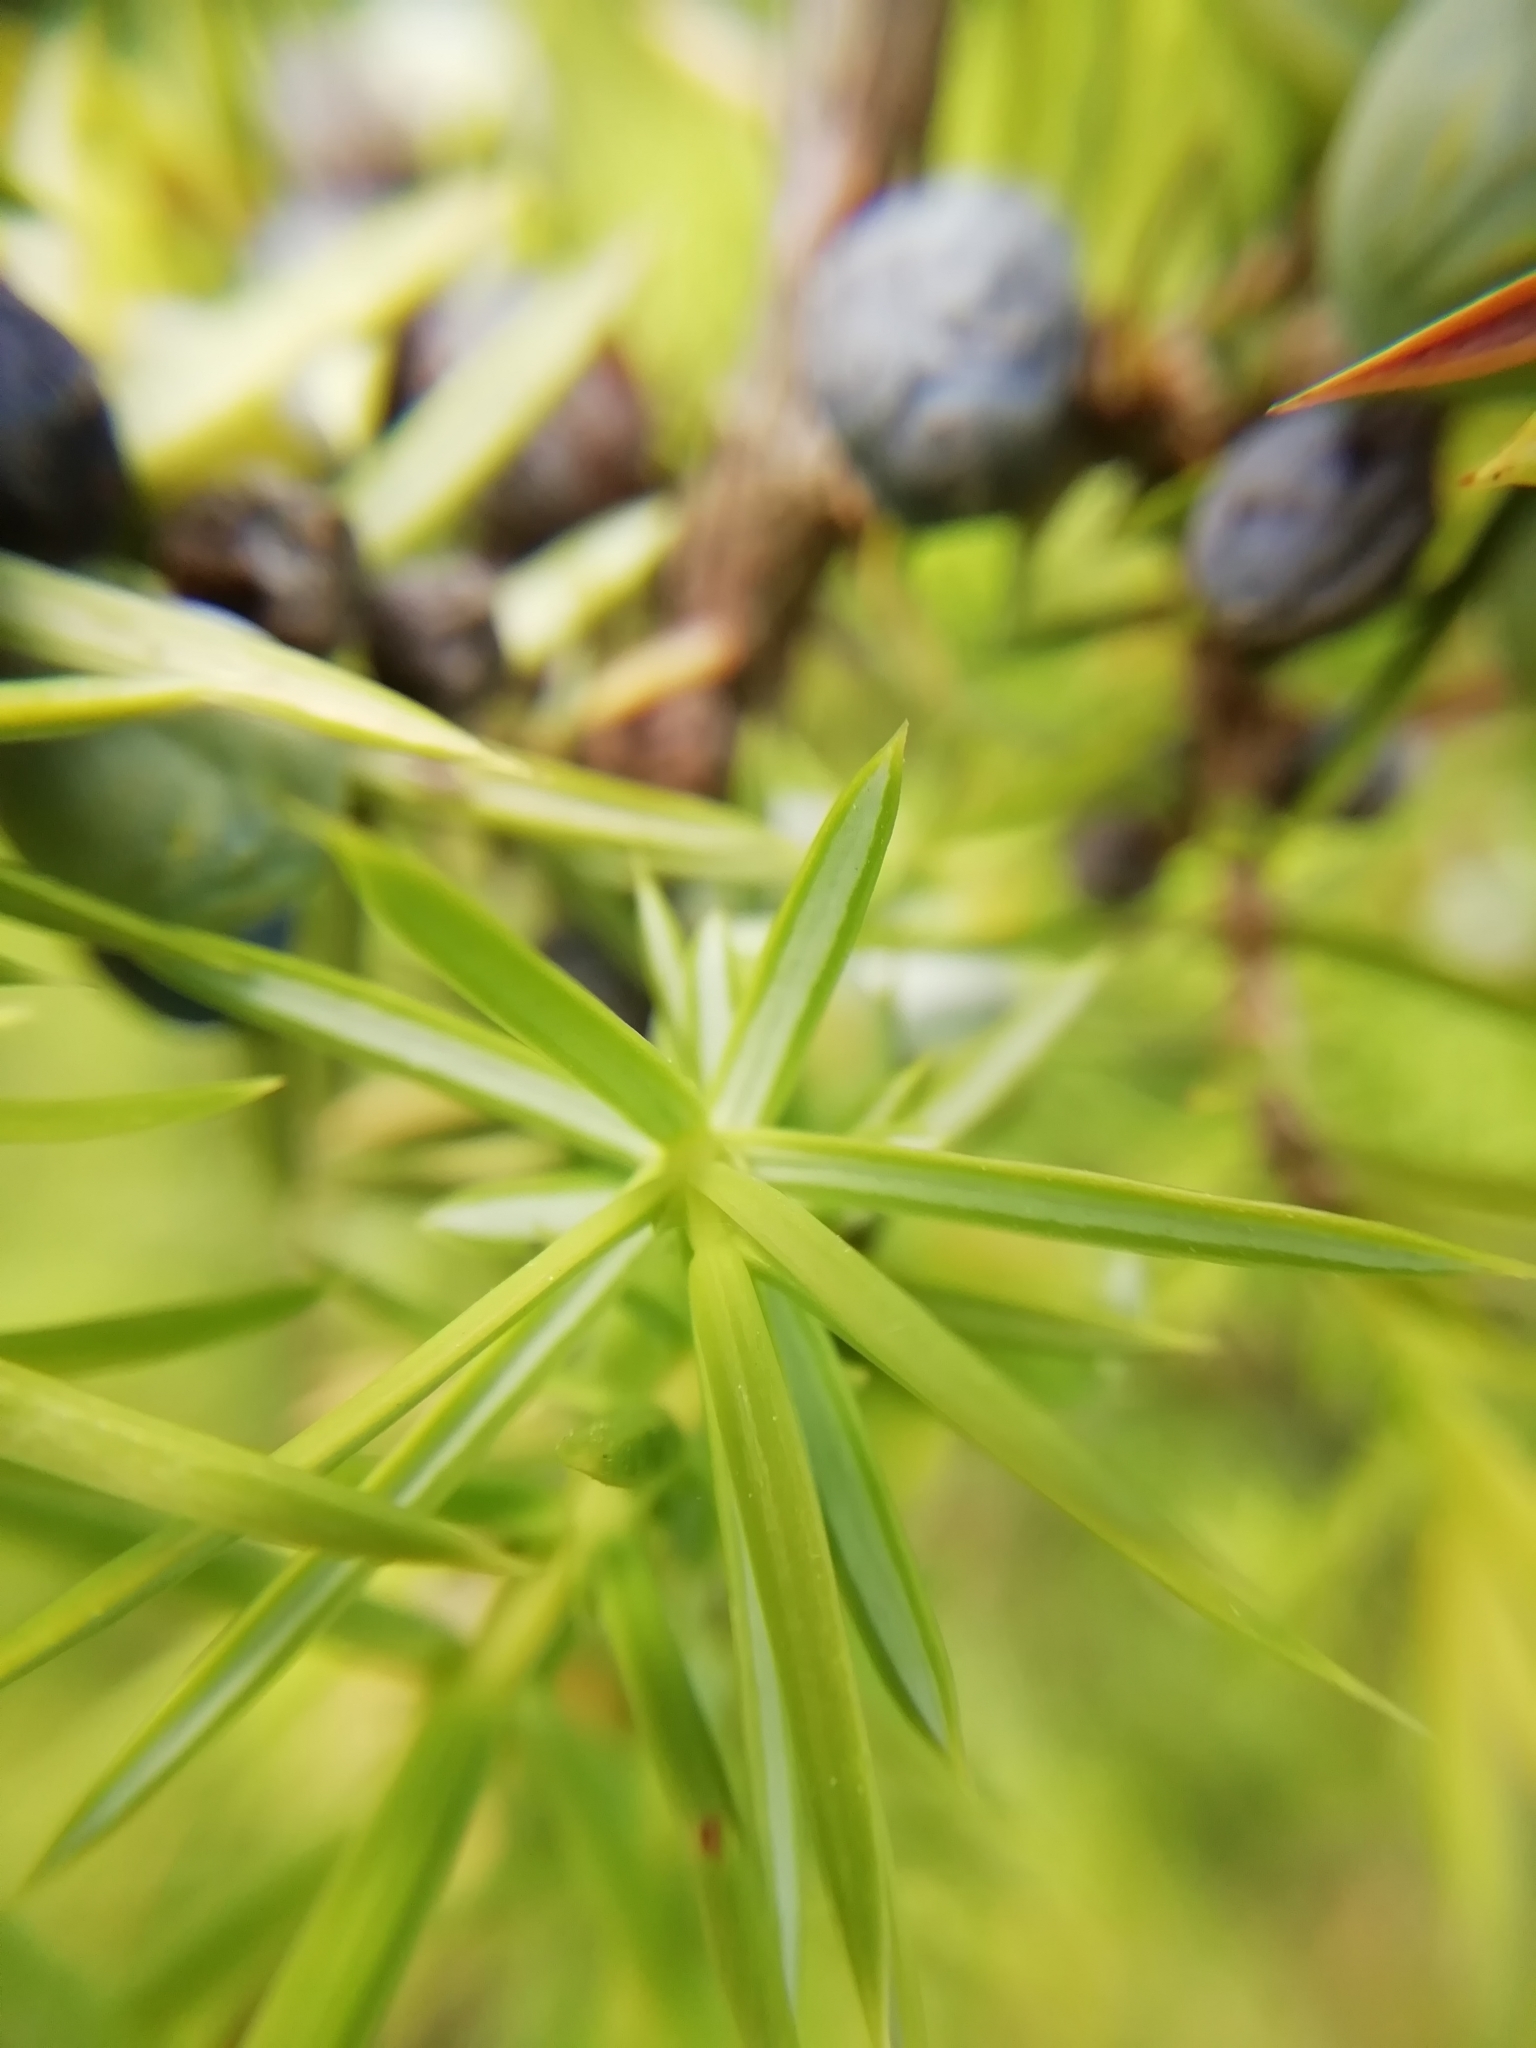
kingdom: Plantae
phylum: Tracheophyta
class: Pinopsida
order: Pinales
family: Cupressaceae
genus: Juniperus
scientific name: Juniperus communis
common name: Common juniper
